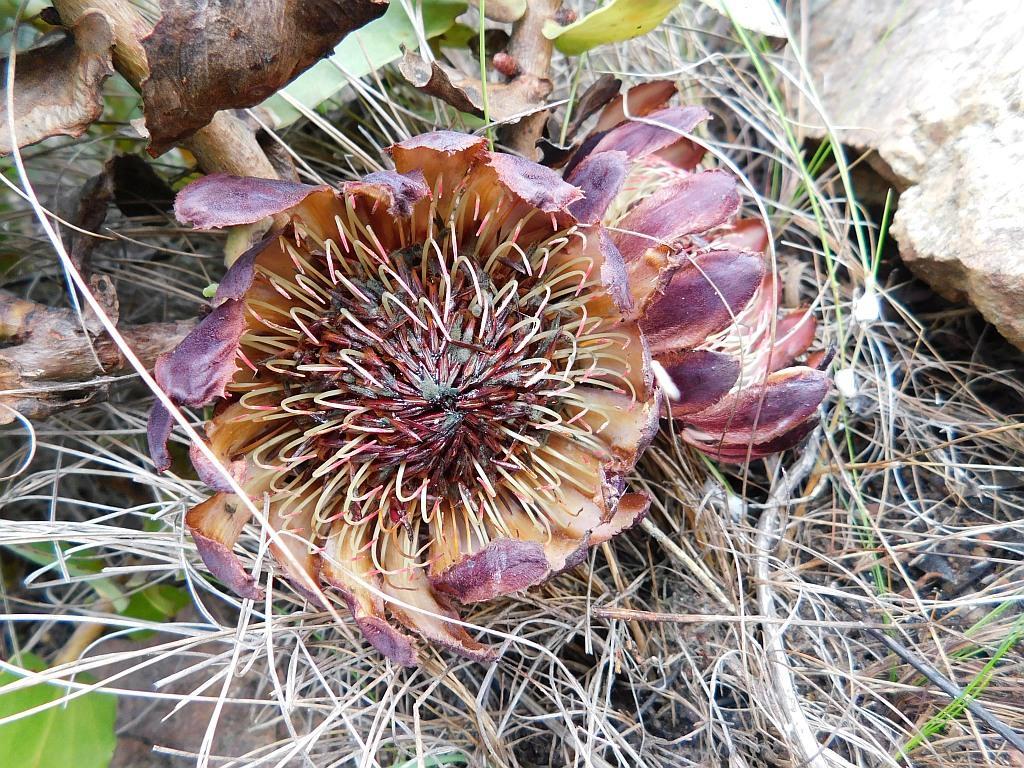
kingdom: Plantae
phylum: Tracheophyta
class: Magnoliopsida
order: Proteales
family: Proteaceae
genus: Protea
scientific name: Protea amplexicaulis
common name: Clasping-leaf sugarbush
